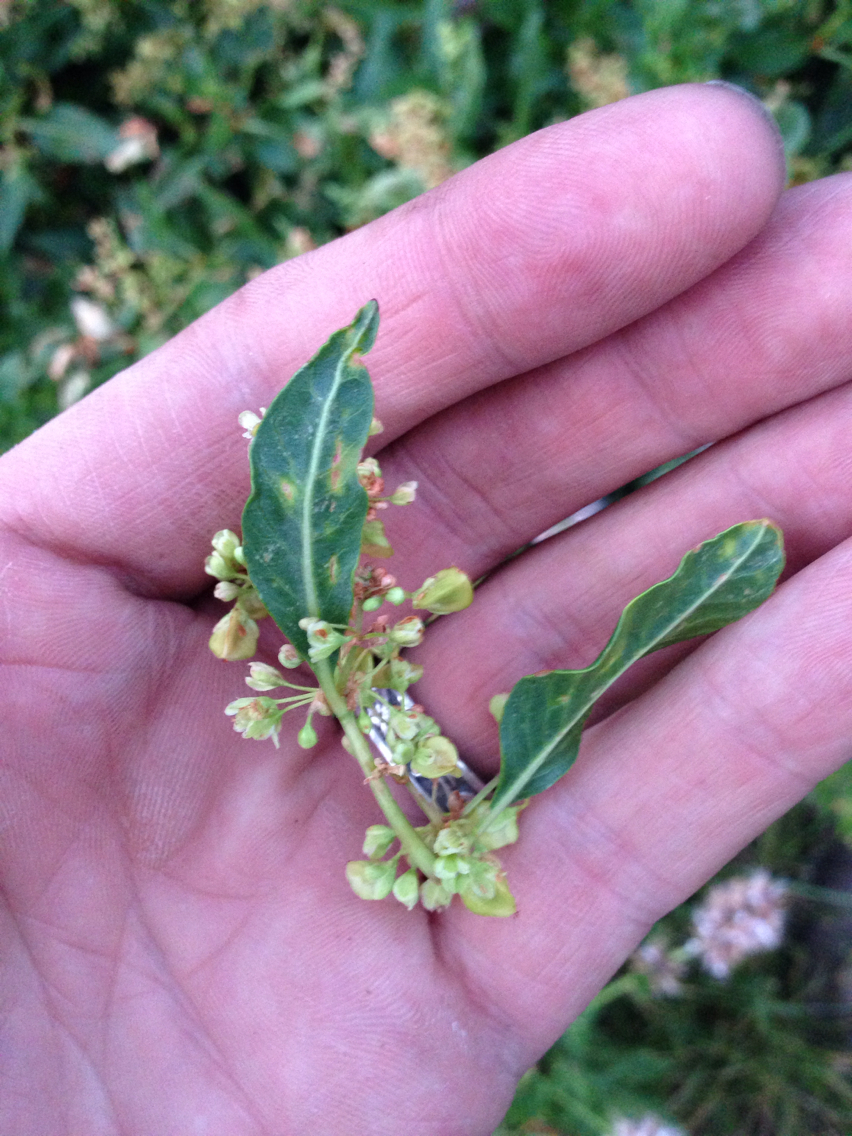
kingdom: Plantae
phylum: Tracheophyta
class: Magnoliopsida
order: Caryophyllales
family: Polygonaceae
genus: Koenigia
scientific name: Koenigia phytolaccifolia
